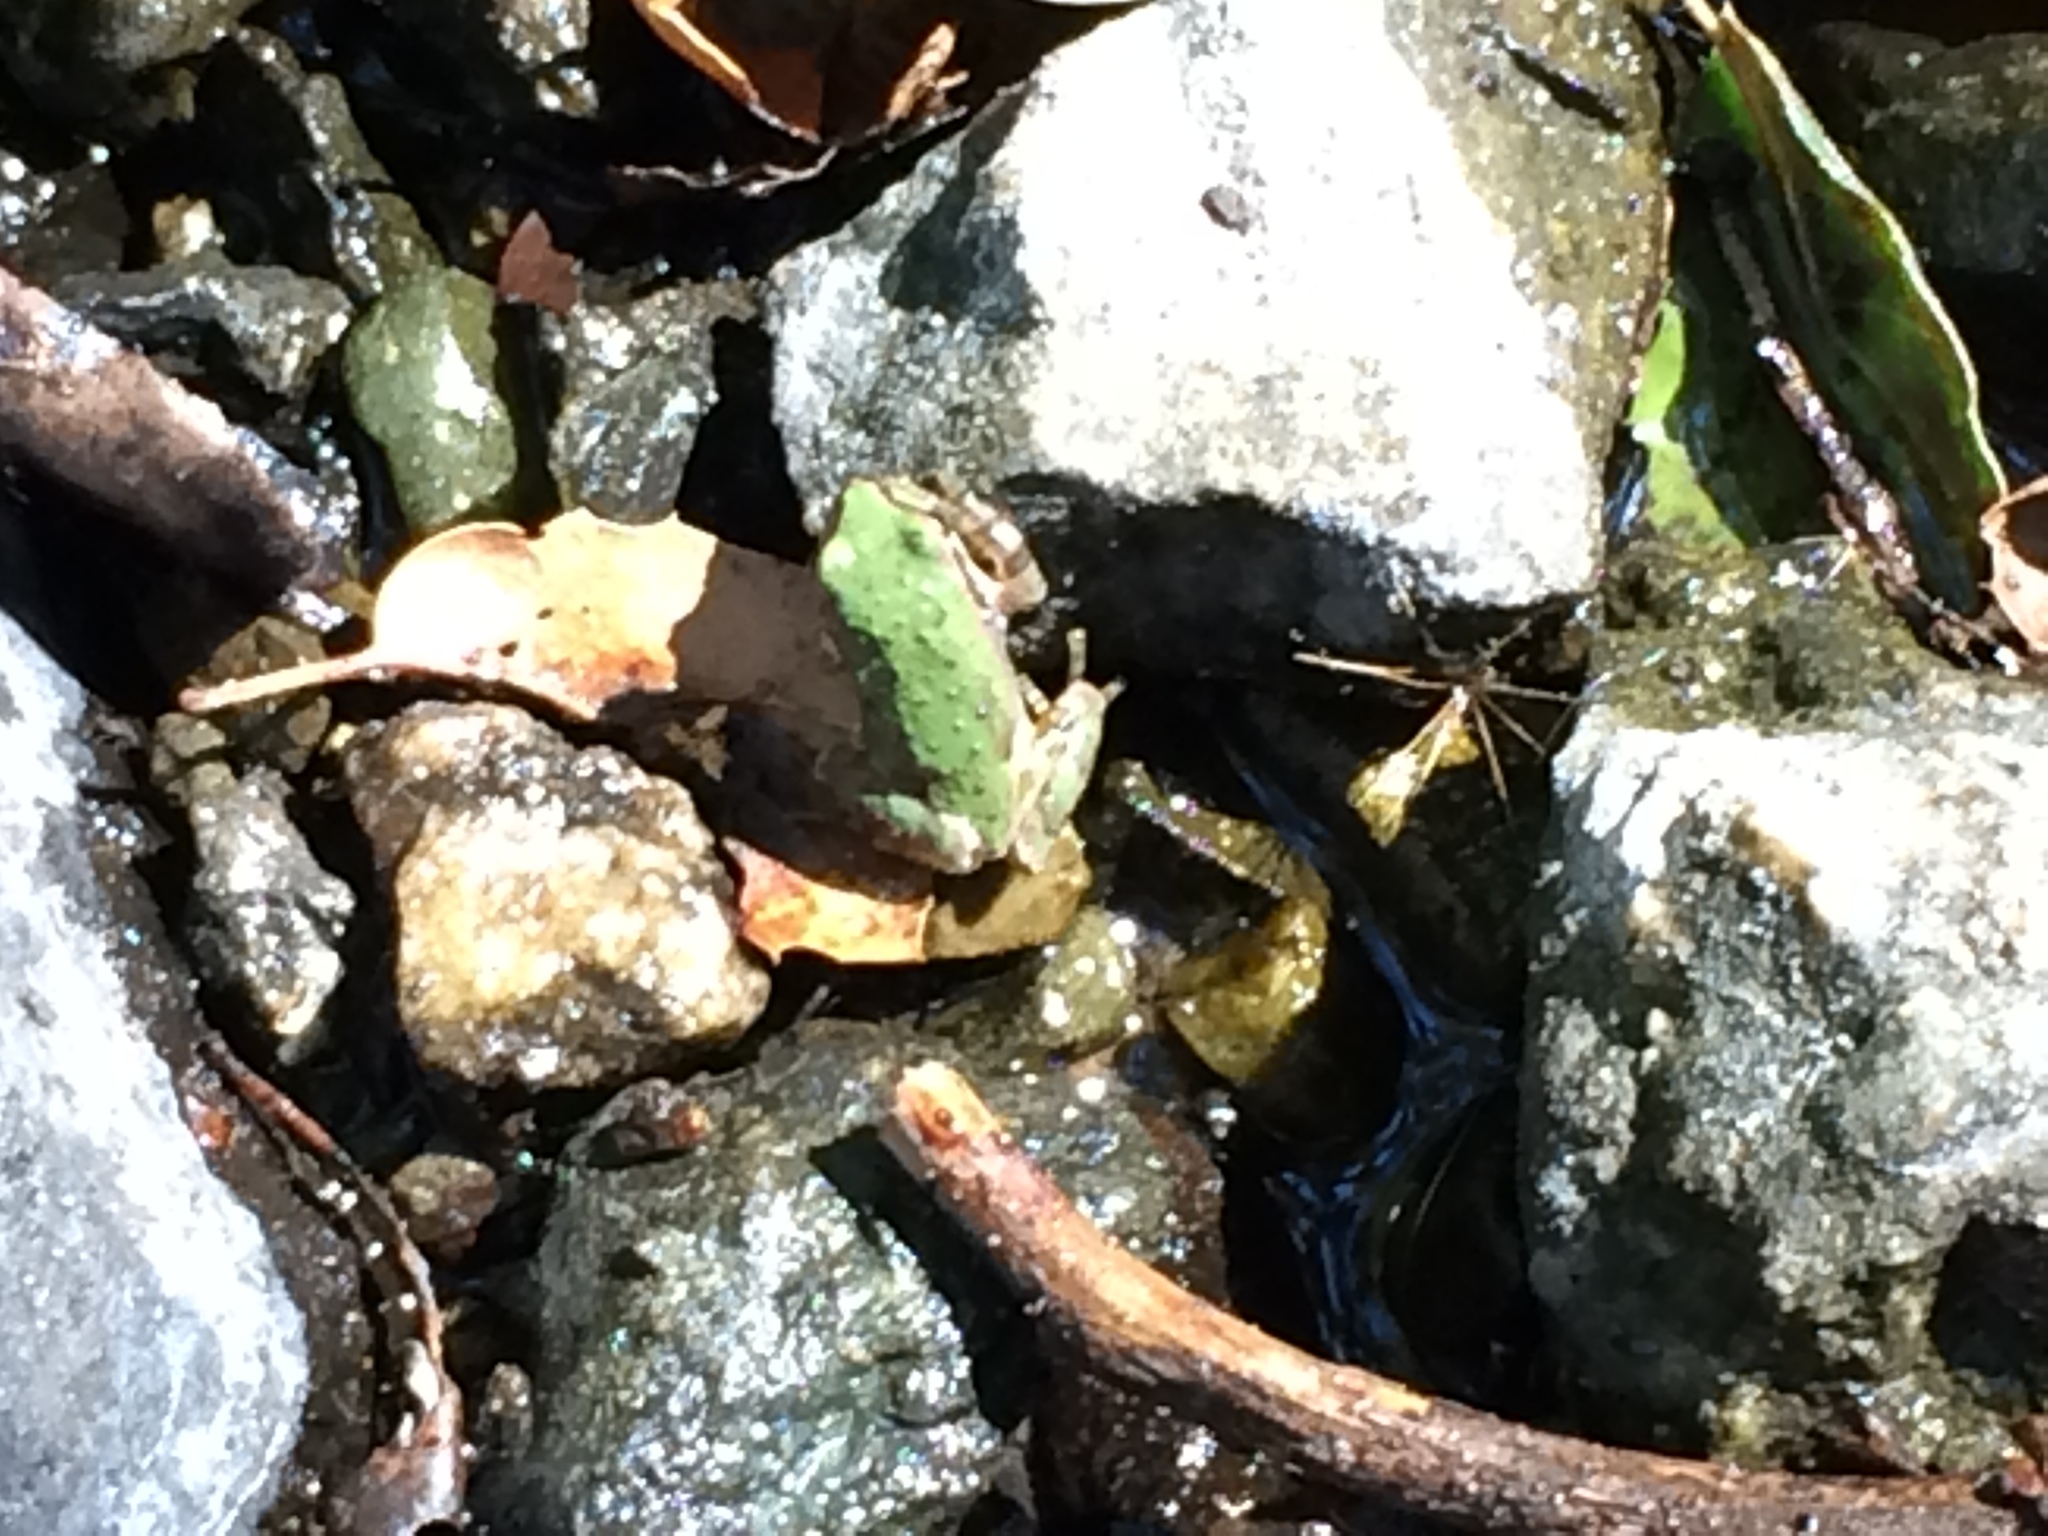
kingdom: Animalia
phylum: Chordata
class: Amphibia
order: Anura
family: Hylidae
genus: Pseudacris
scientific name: Pseudacris regilla
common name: Pacific chorus frog
